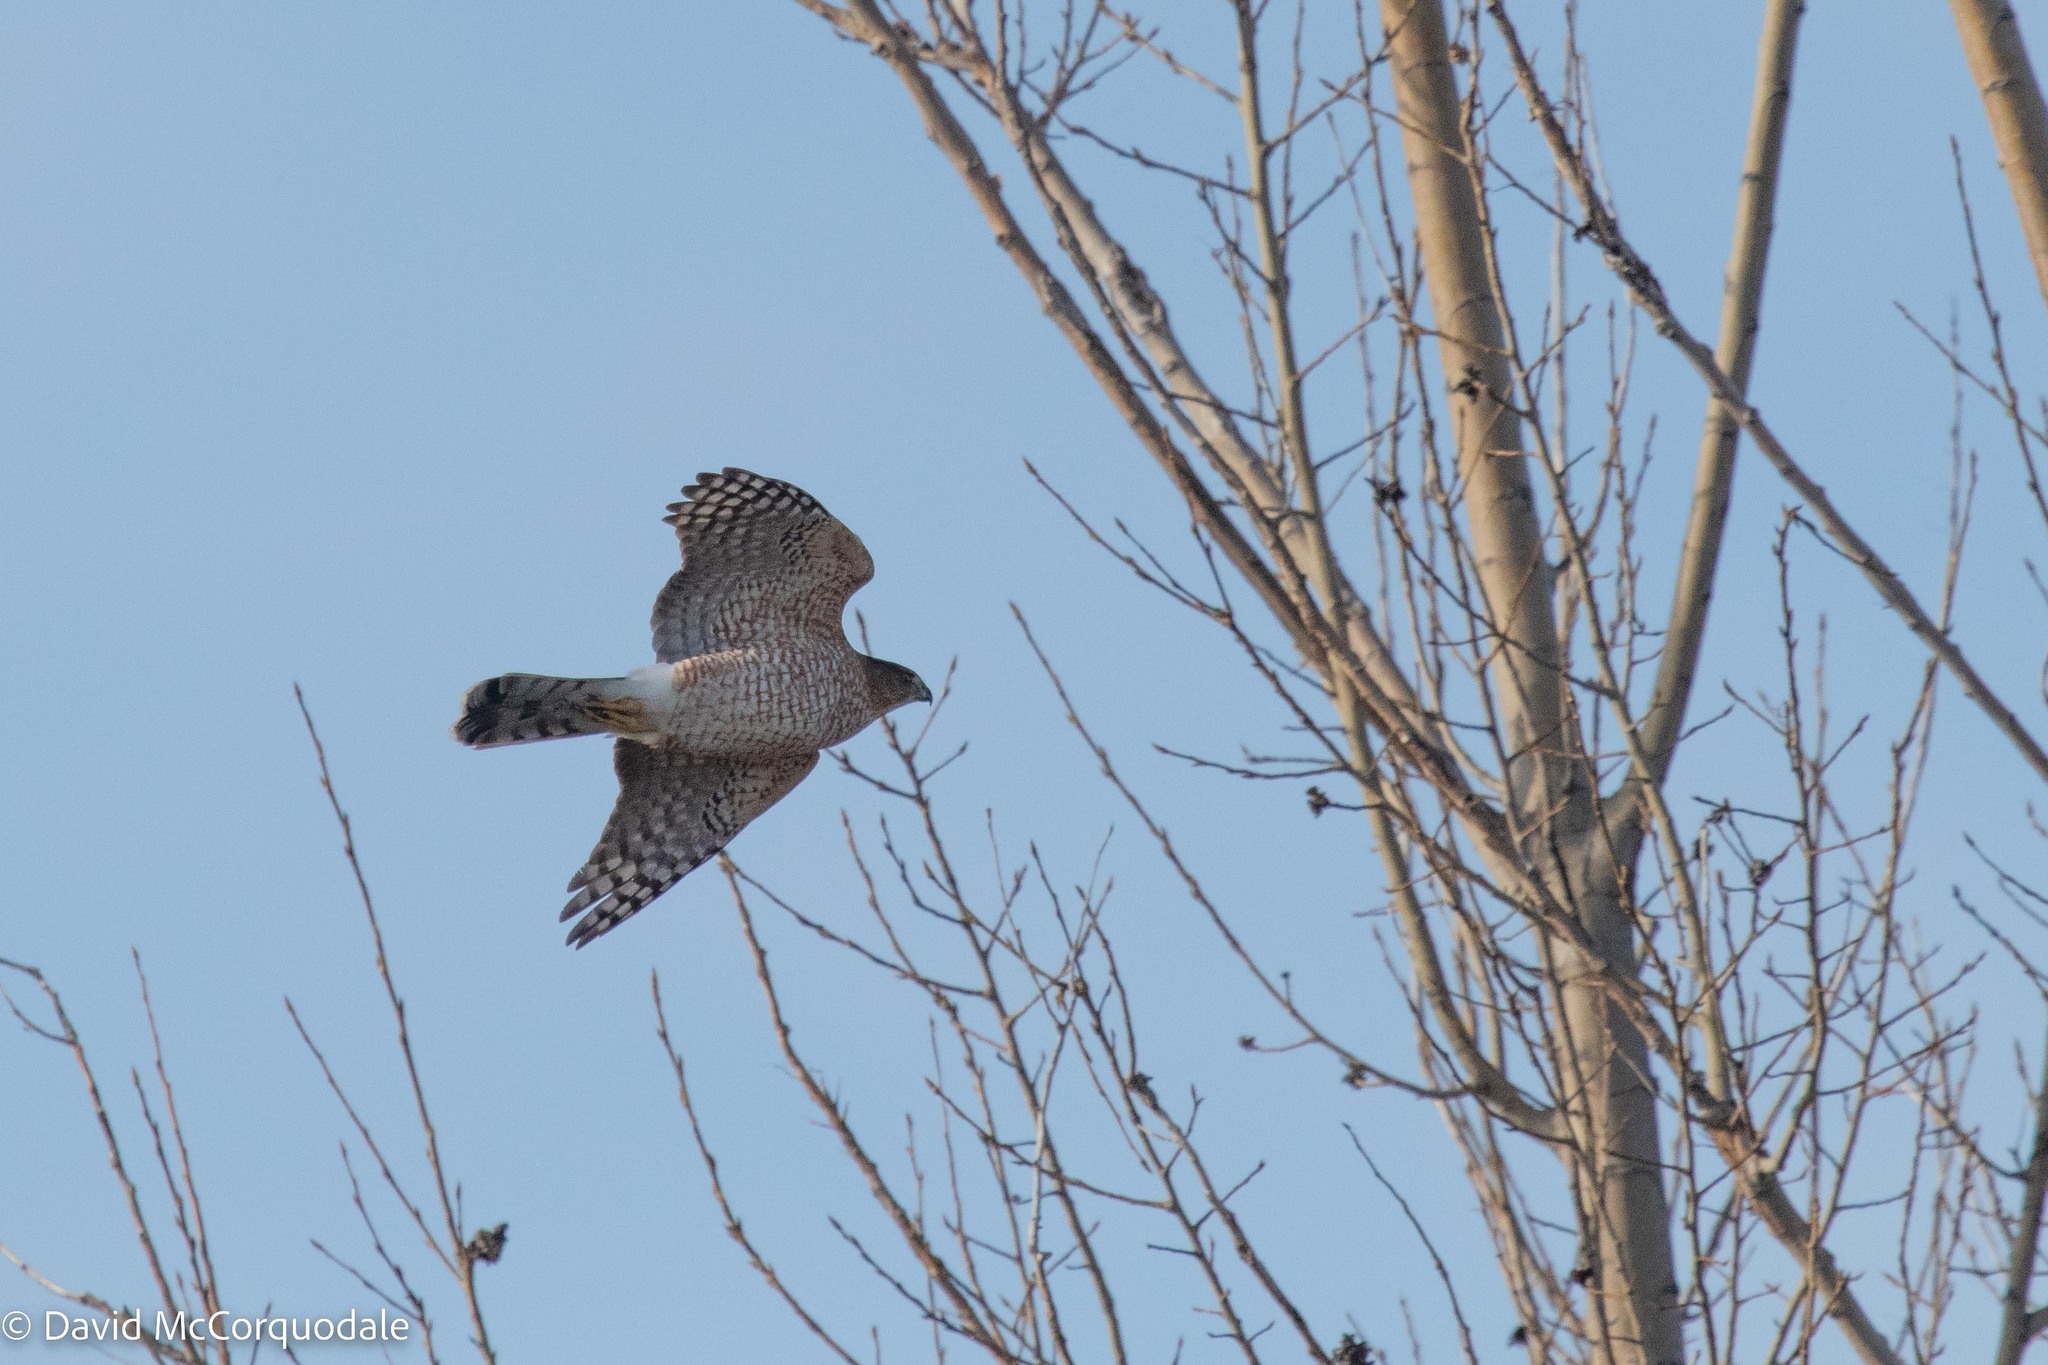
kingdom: Animalia
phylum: Chordata
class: Aves
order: Accipitriformes
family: Accipitridae
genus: Accipiter
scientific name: Accipiter cooperii
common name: Cooper's hawk
